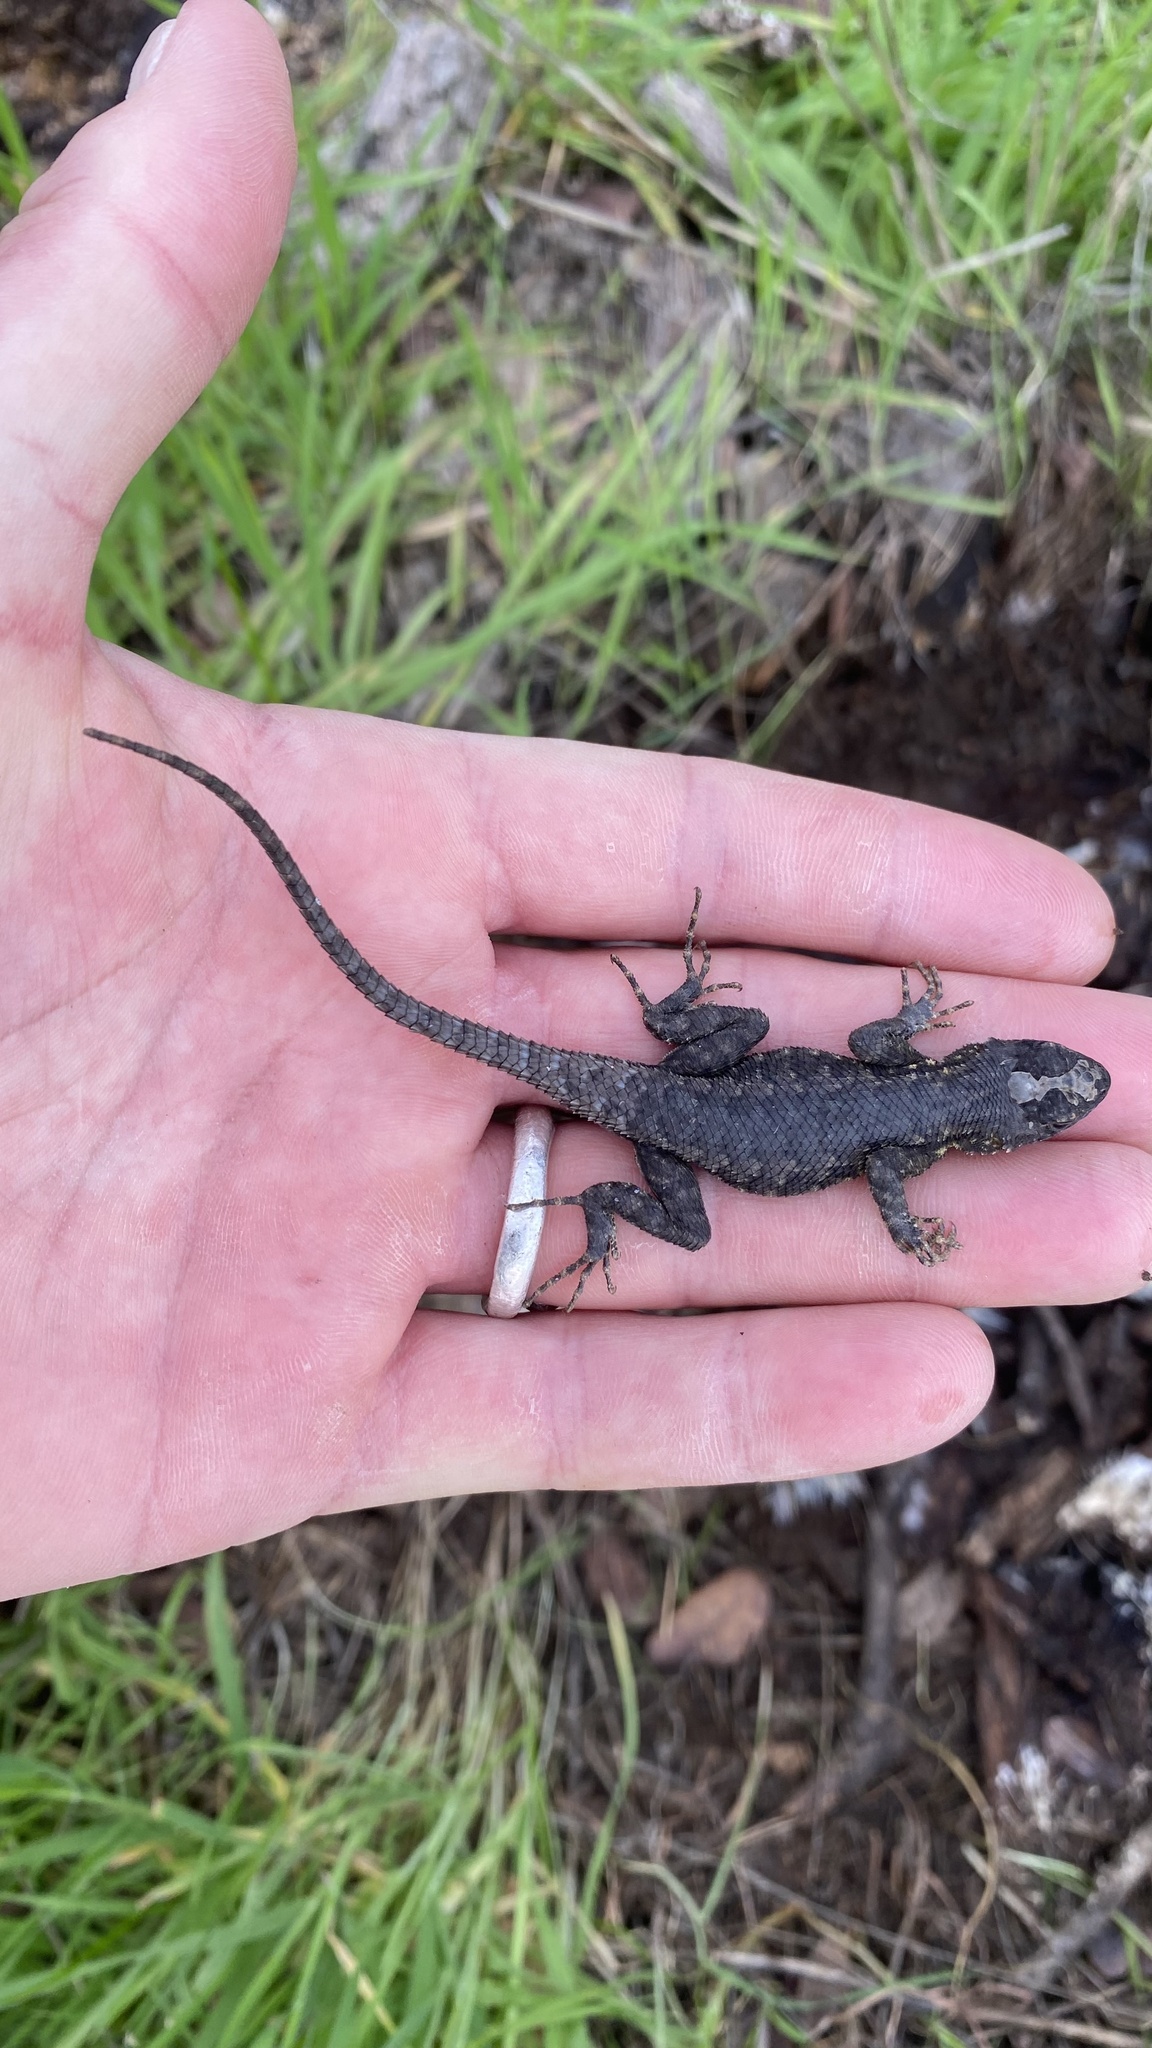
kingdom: Animalia
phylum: Chordata
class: Squamata
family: Phrynosomatidae
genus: Sceloporus
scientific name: Sceloporus occidentalis
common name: Western fence lizard
